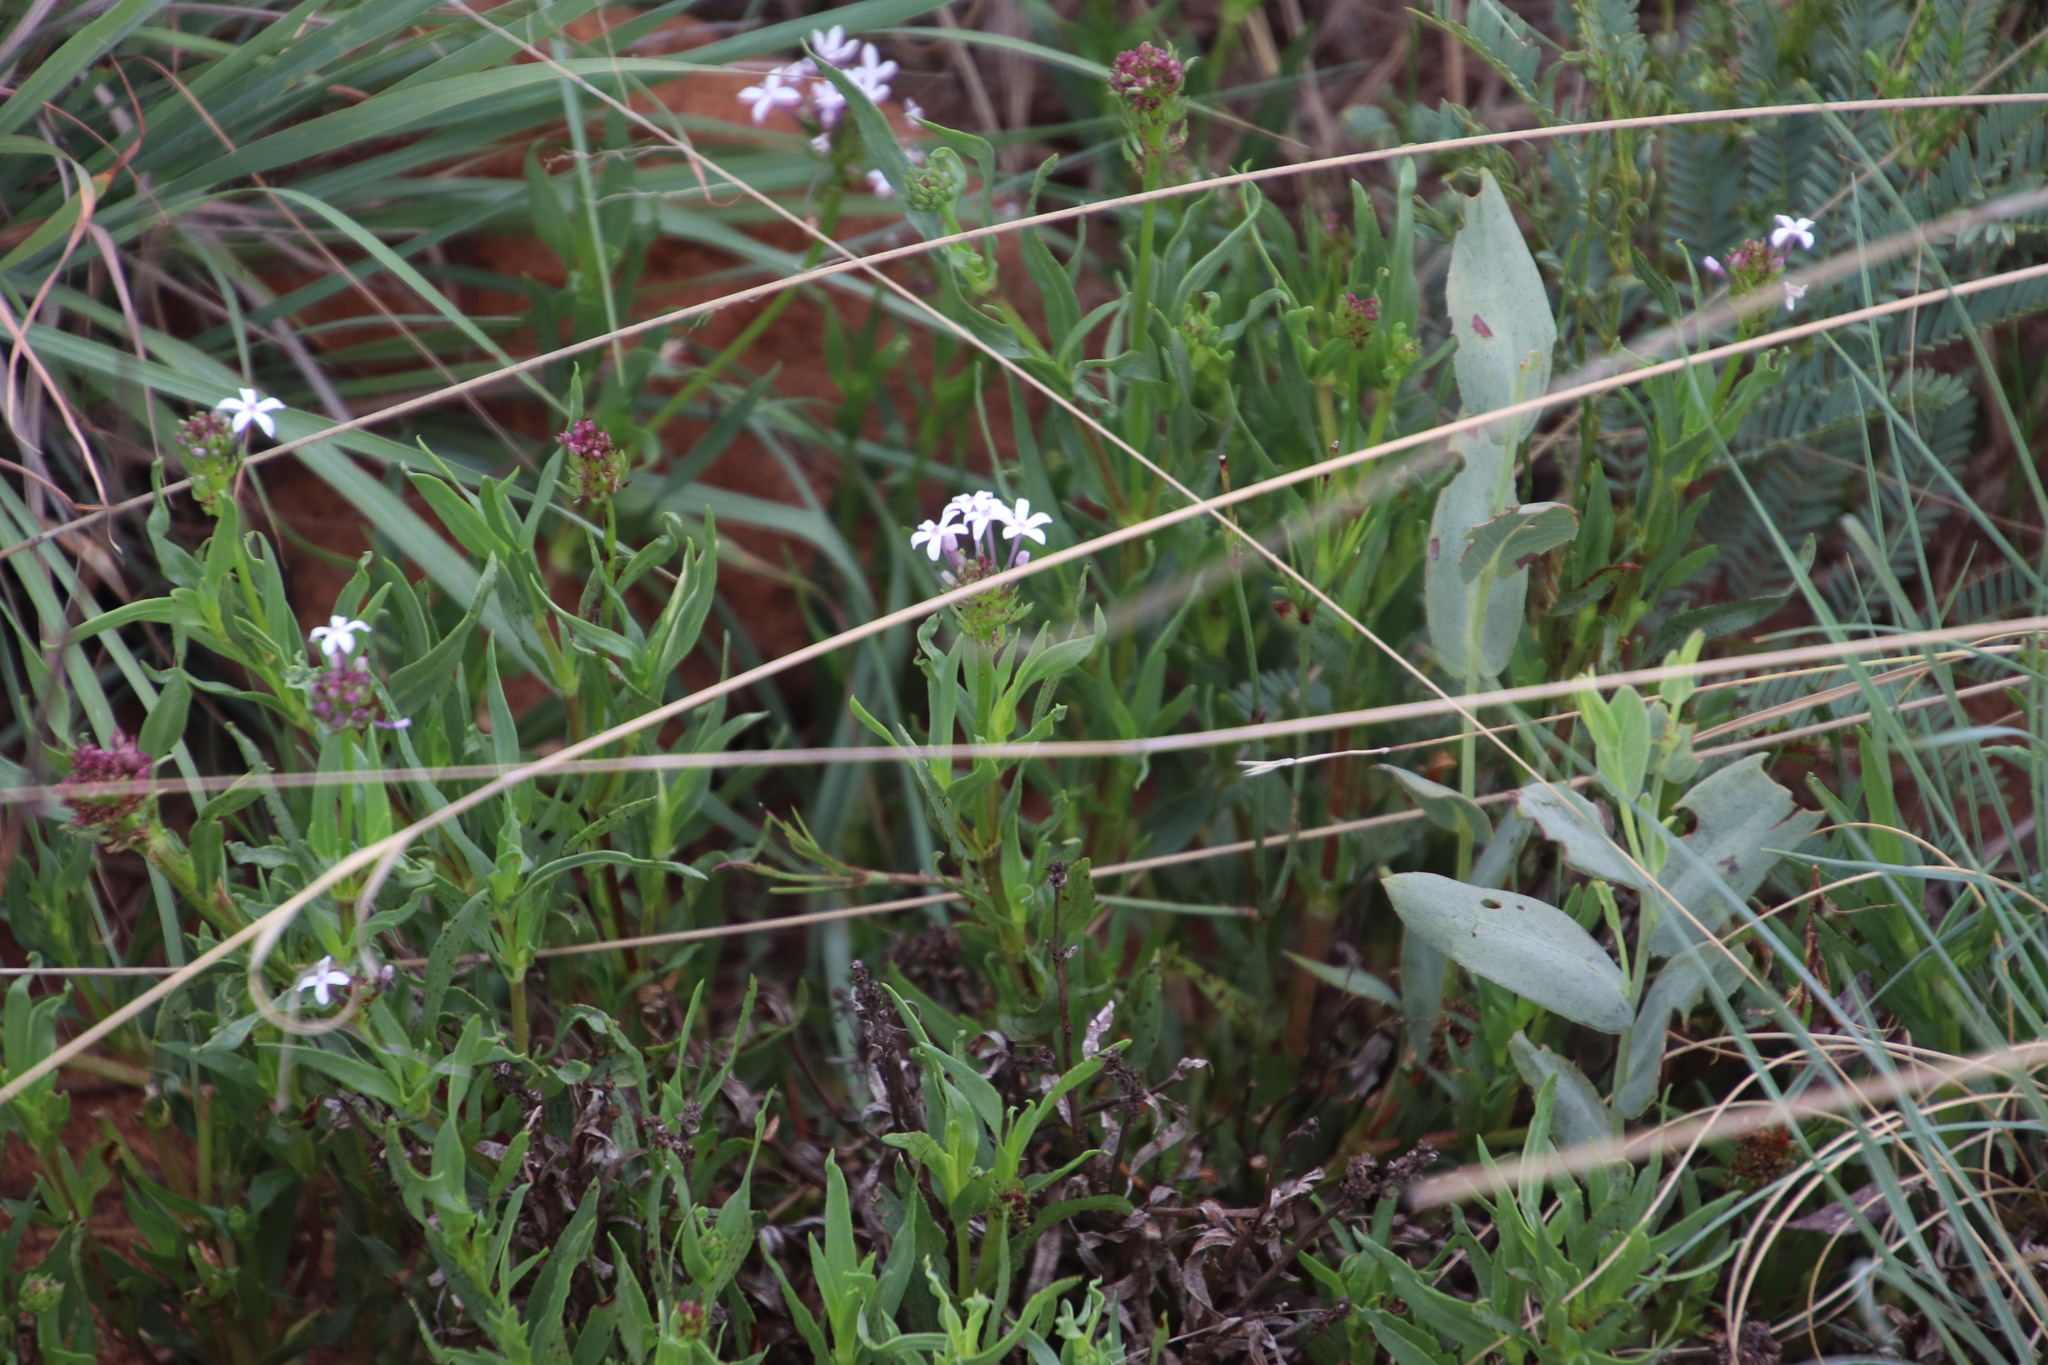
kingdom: Plantae
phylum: Tracheophyta
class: Magnoliopsida
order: Gentianales
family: Rubiaceae
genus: Pentanisia
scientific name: Pentanisia angustifolia
